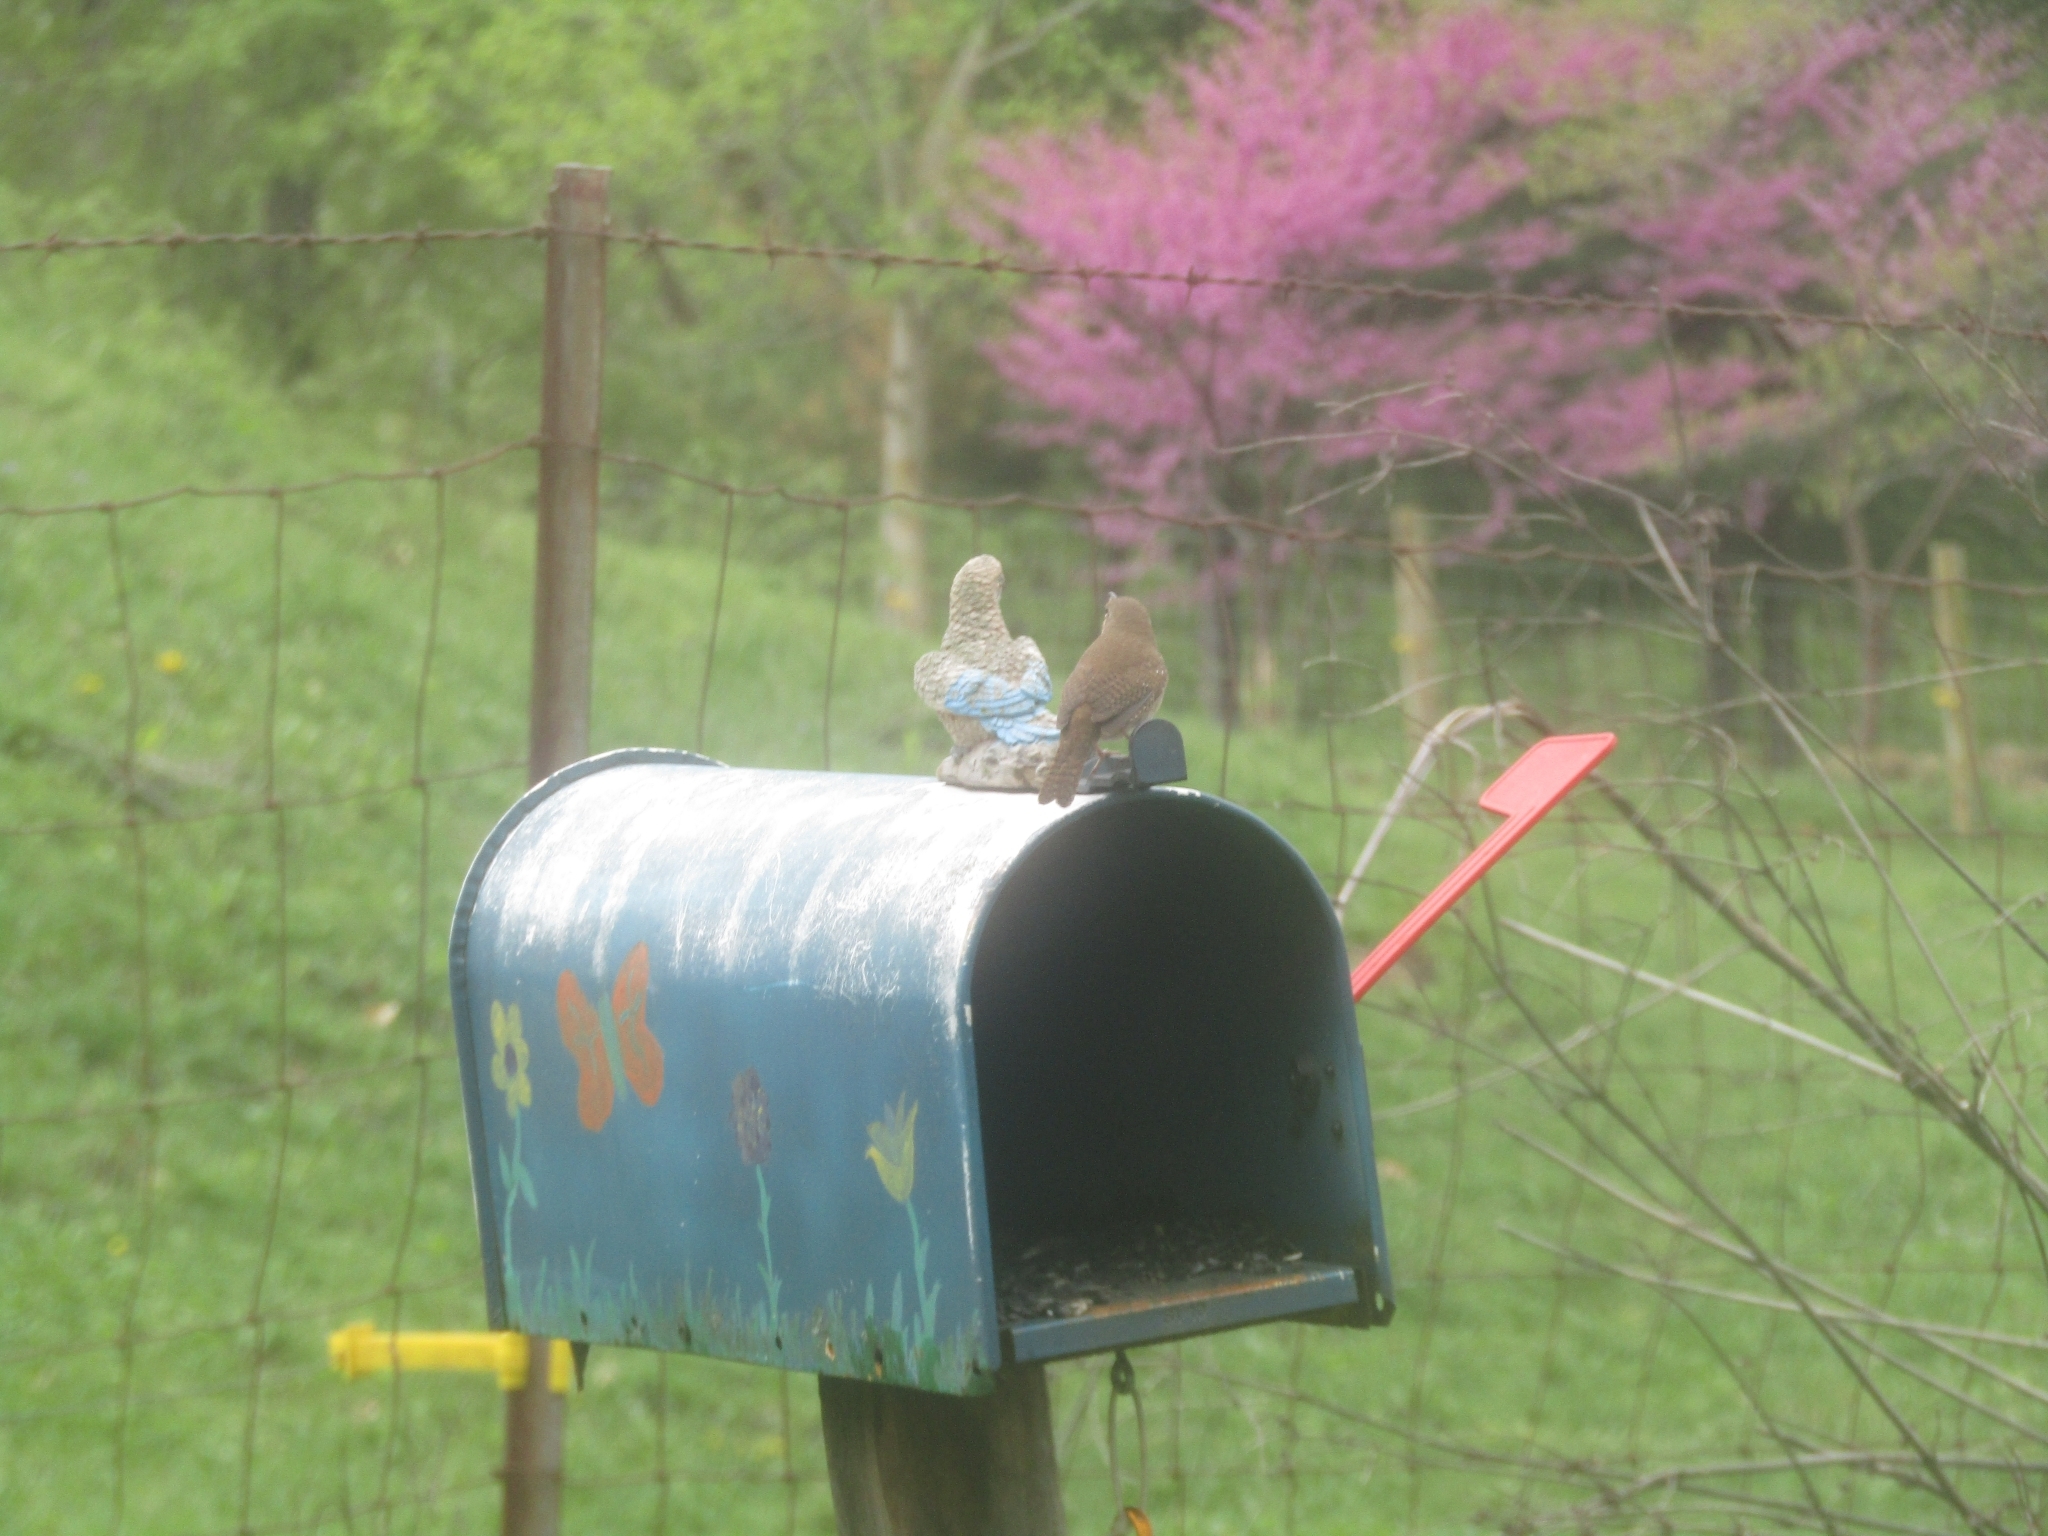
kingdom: Animalia
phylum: Chordata
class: Aves
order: Passeriformes
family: Troglodytidae
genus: Troglodytes
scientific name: Troglodytes aedon
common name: House wren
